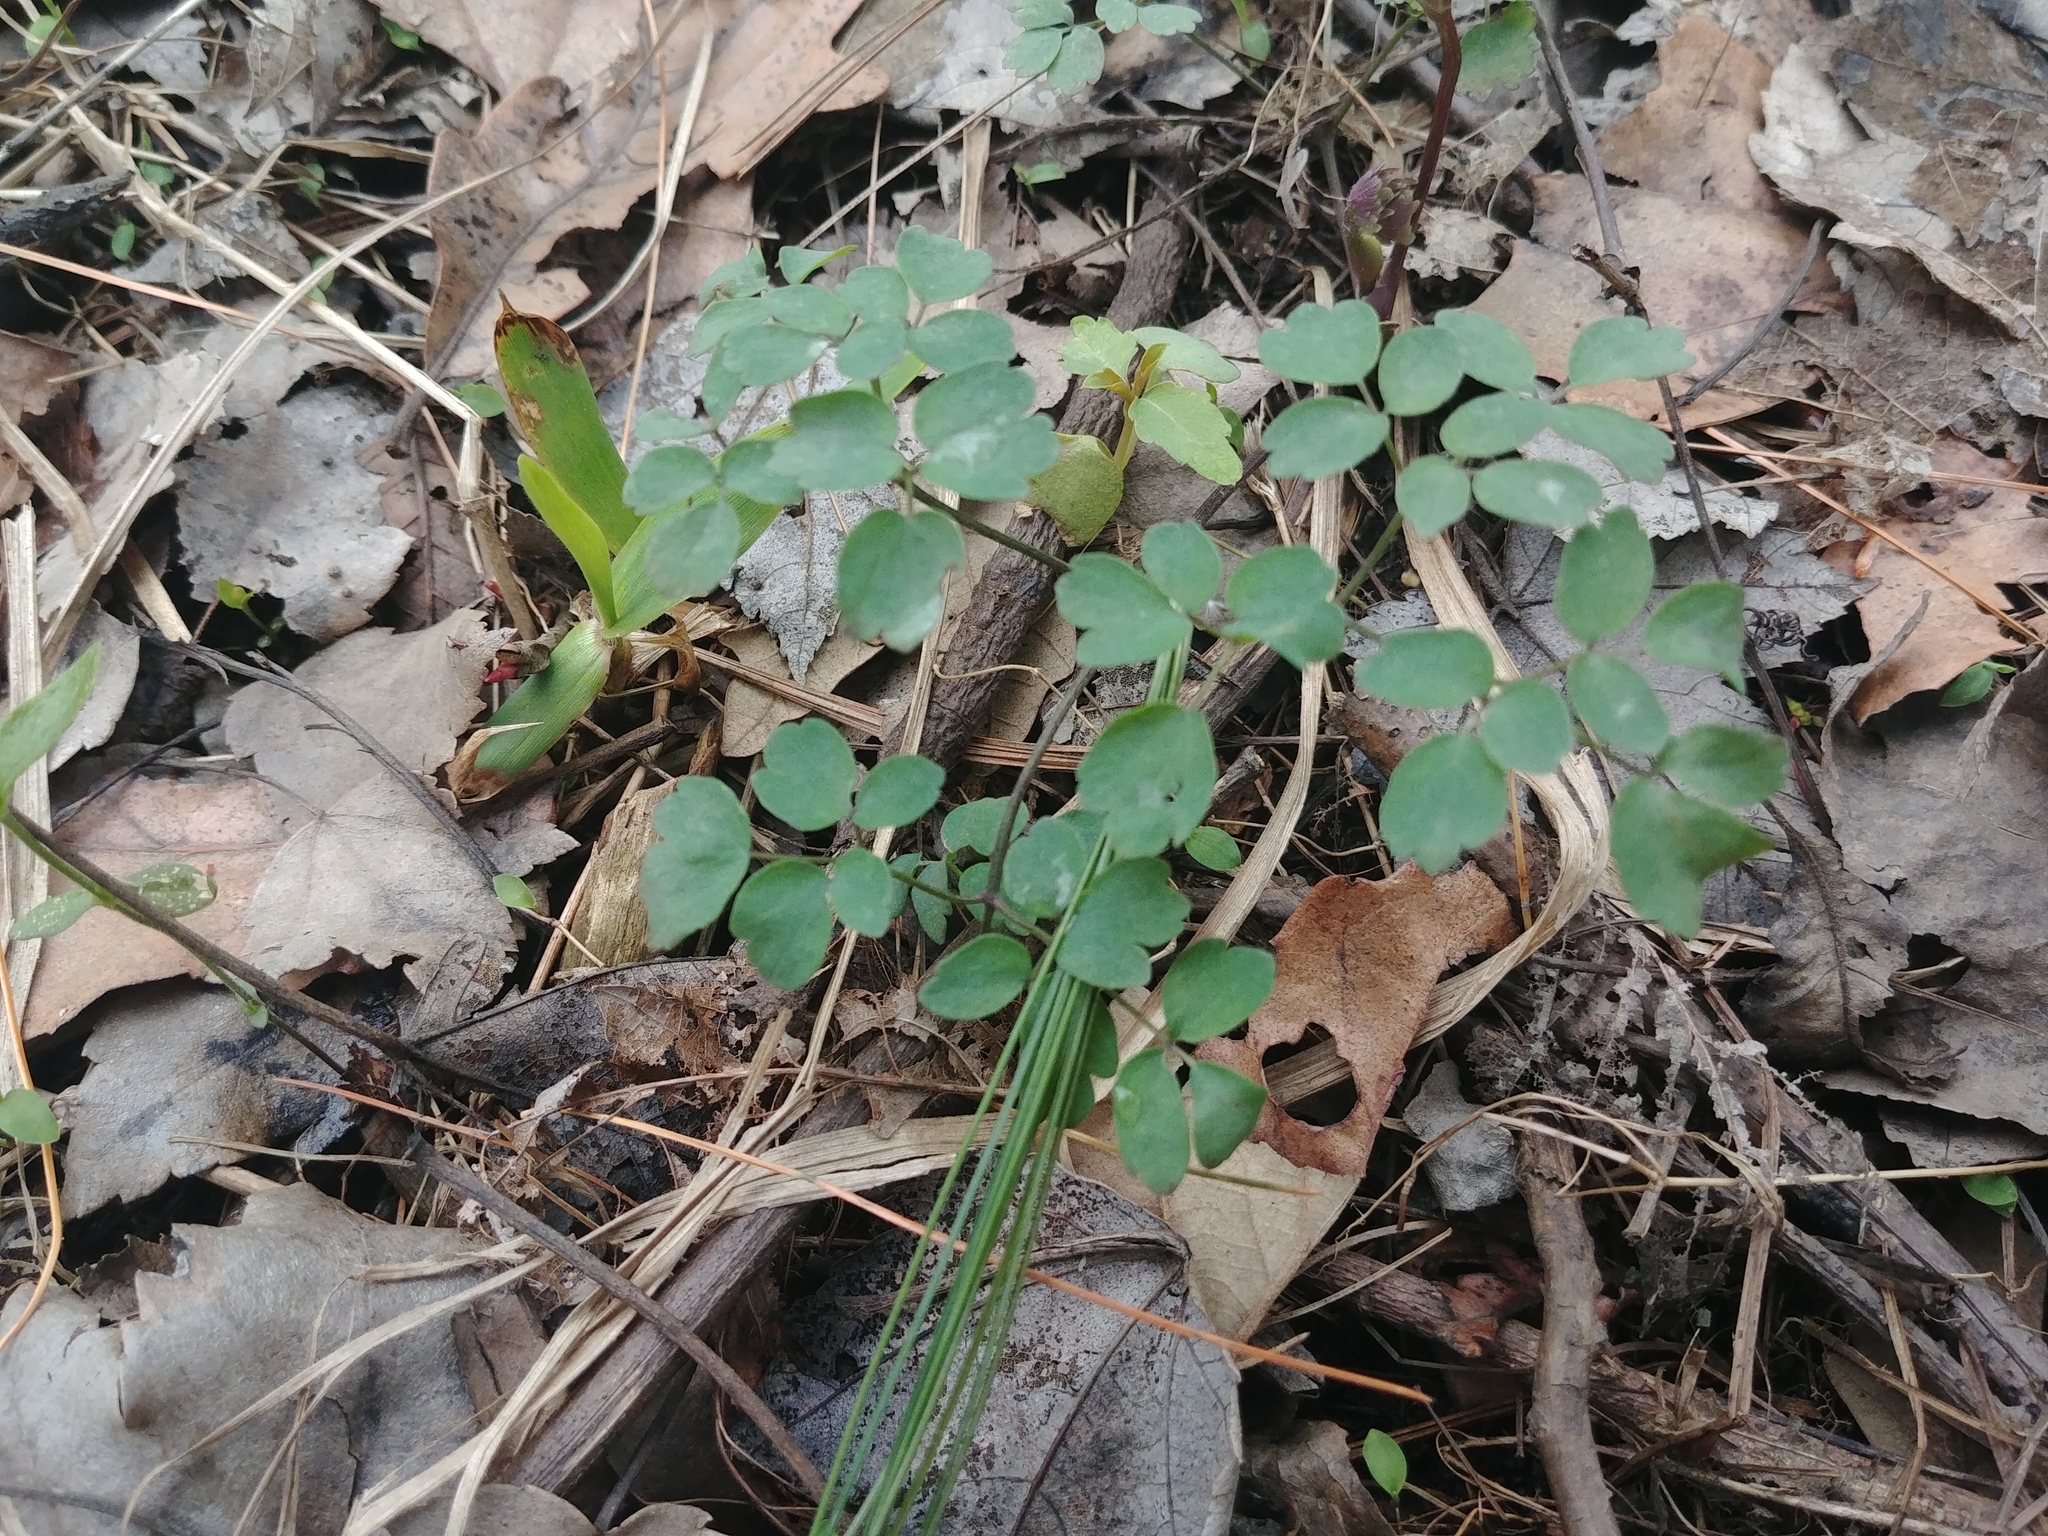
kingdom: Plantae
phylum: Tracheophyta
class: Magnoliopsida
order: Ranunculales
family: Ranunculaceae
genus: Thalictrum
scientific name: Thalictrum thalictroides
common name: Rue-anemone
